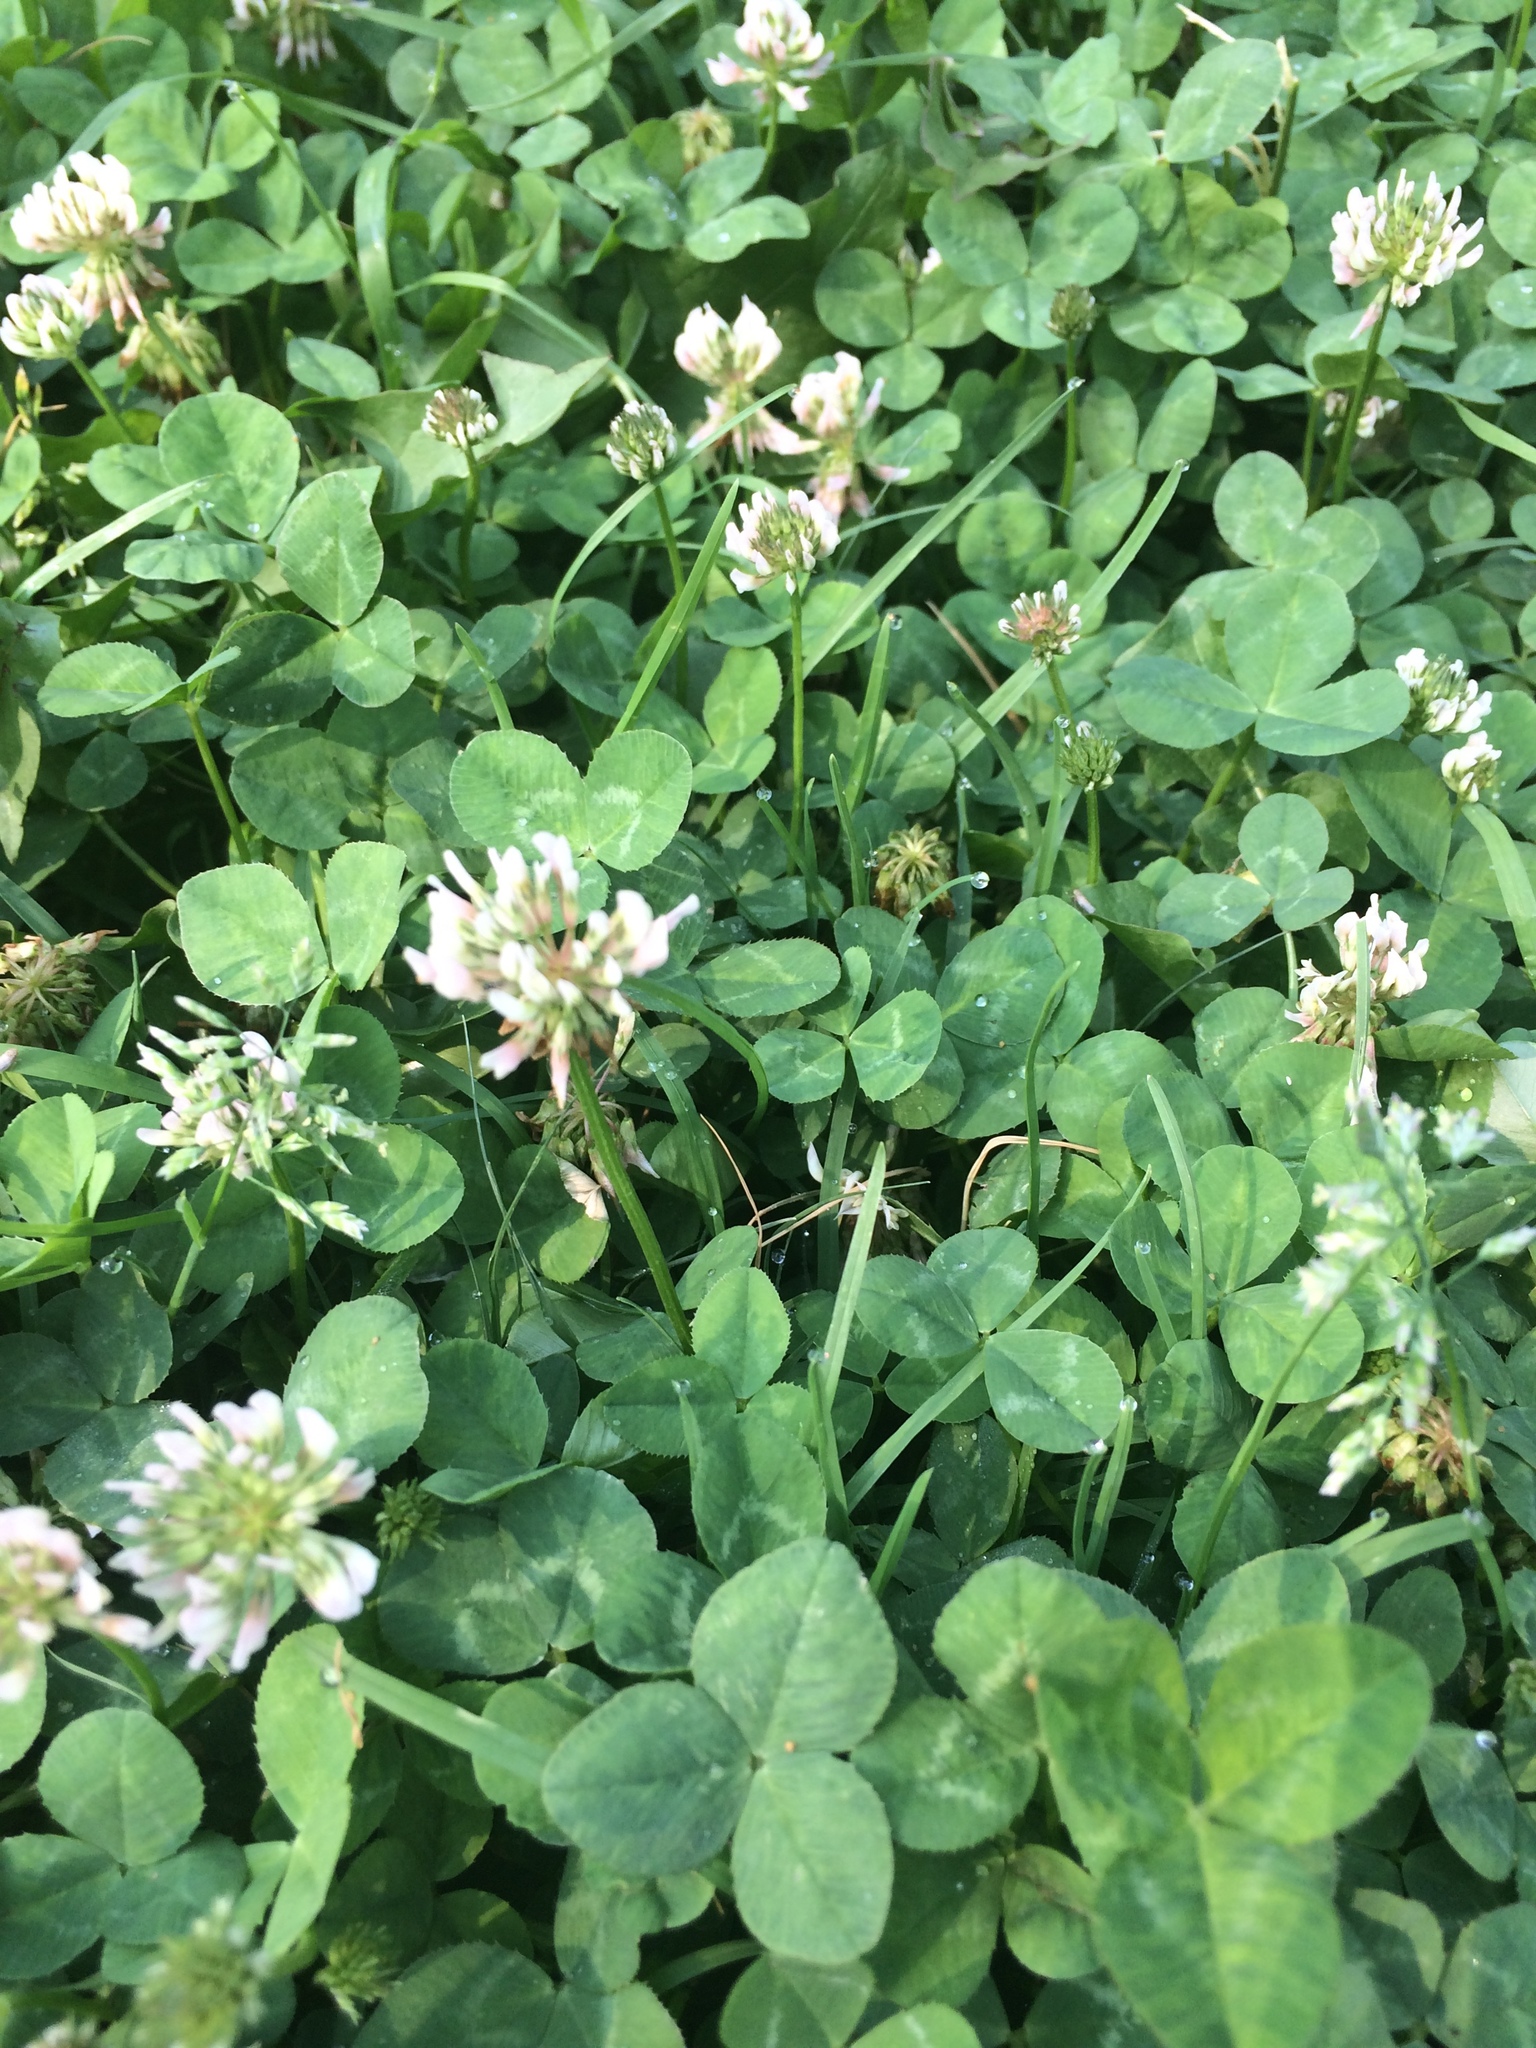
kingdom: Plantae
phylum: Tracheophyta
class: Magnoliopsida
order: Fabales
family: Fabaceae
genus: Trifolium
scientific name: Trifolium repens
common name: White clover
